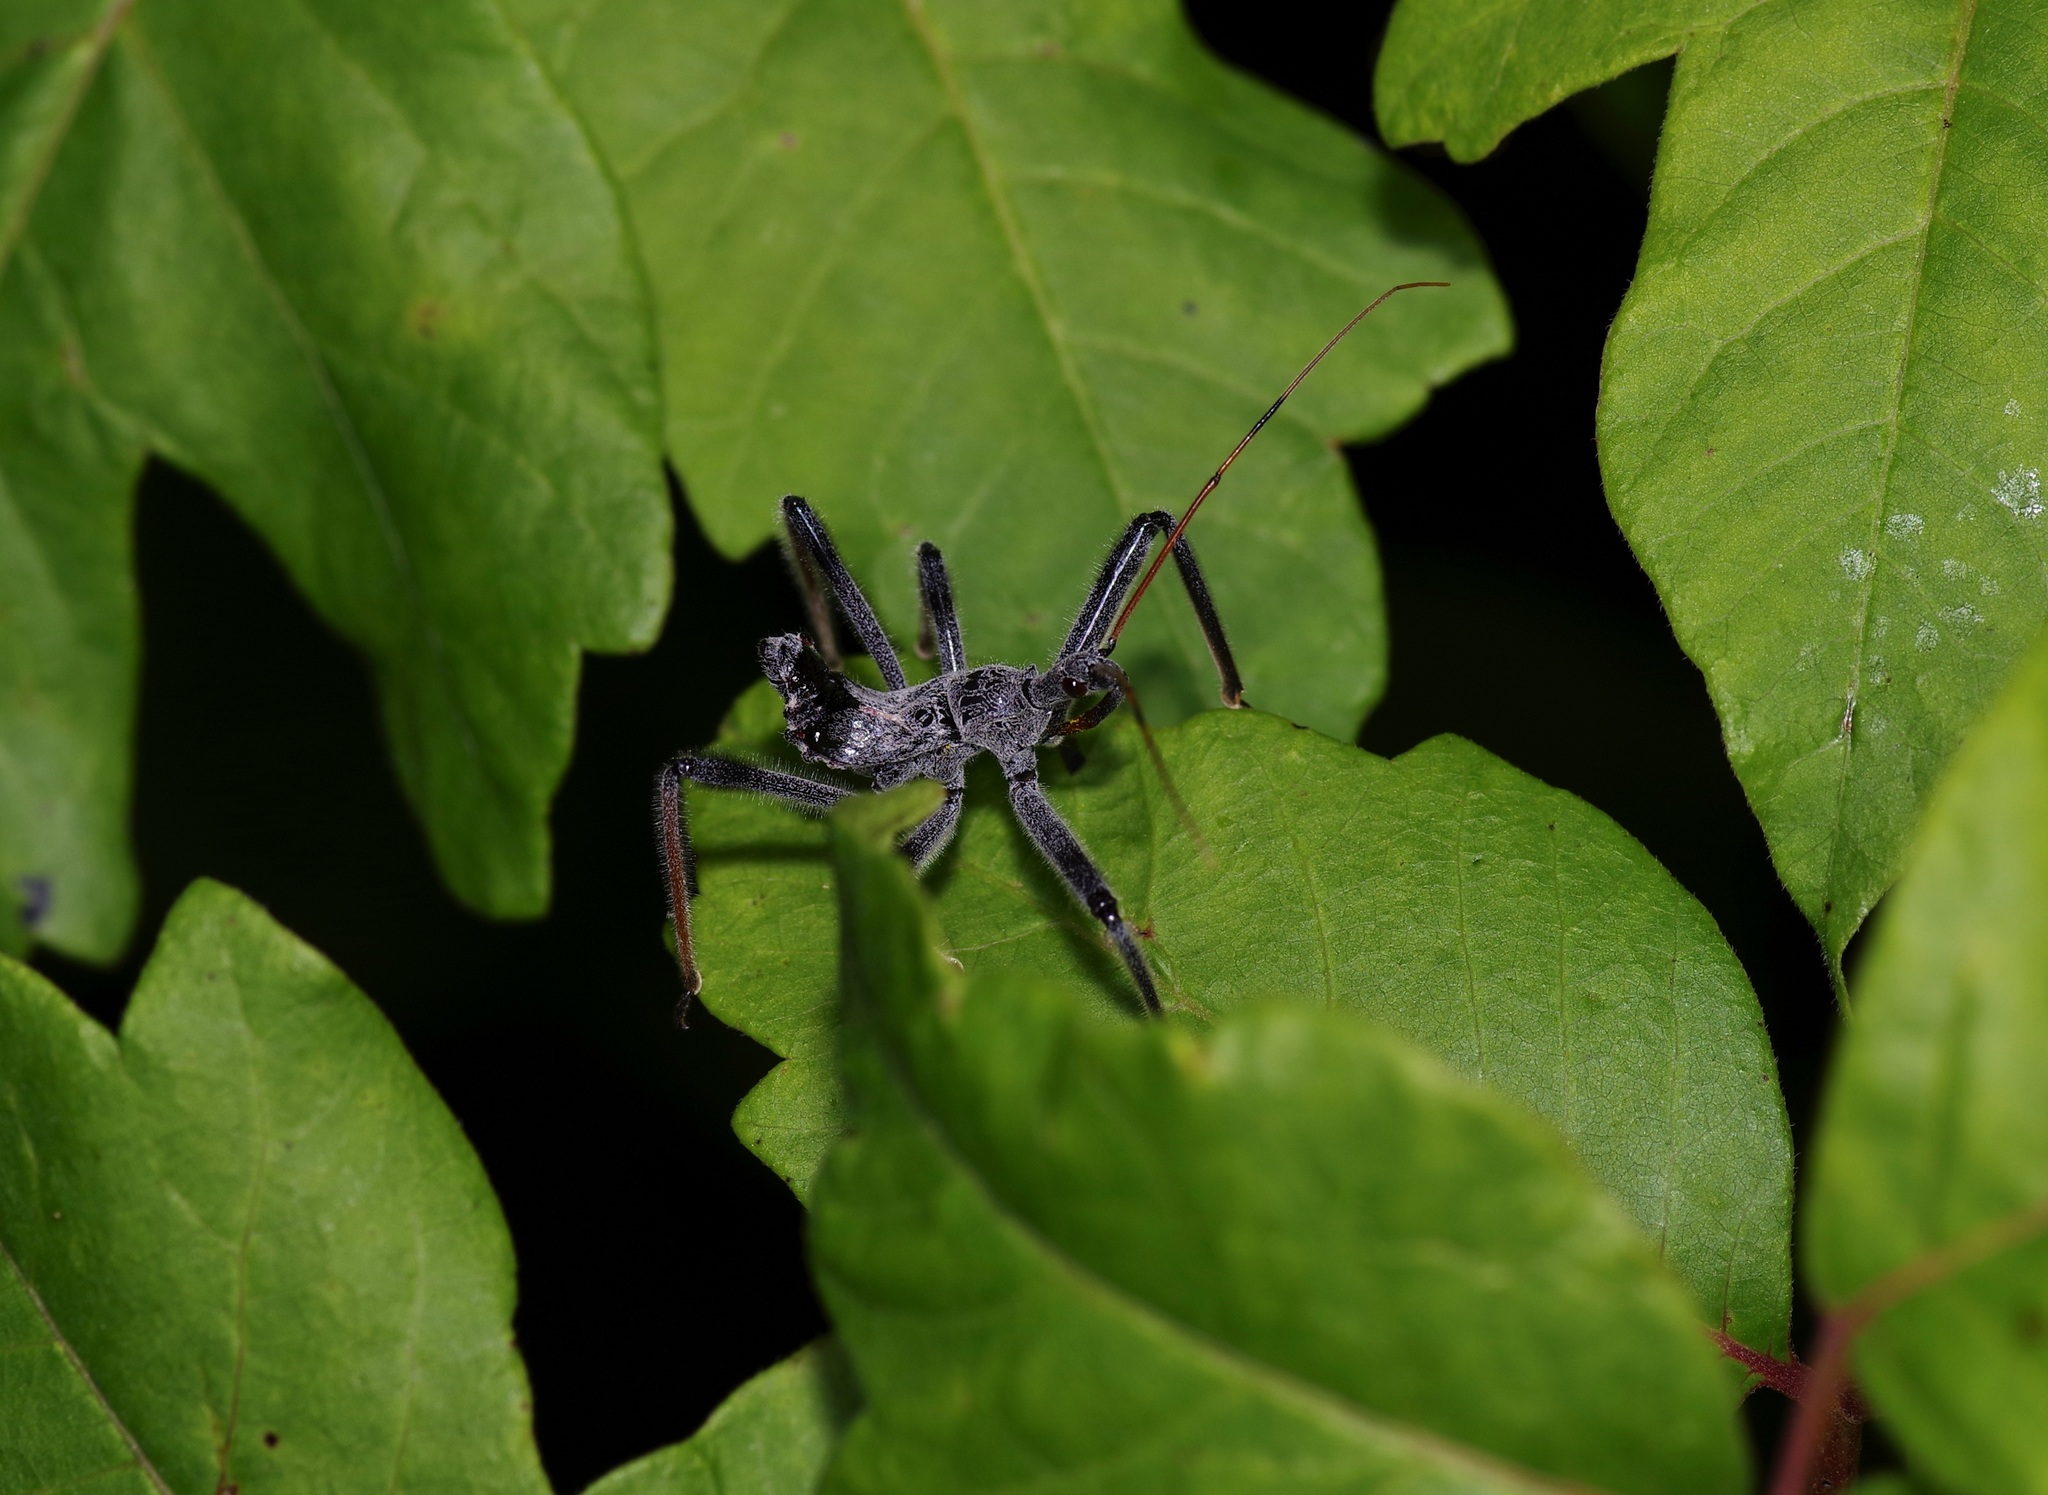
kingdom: Animalia
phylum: Arthropoda
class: Insecta
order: Hemiptera
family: Reduviidae
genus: Arilus
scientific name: Arilus cristatus
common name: North american wheel bug
